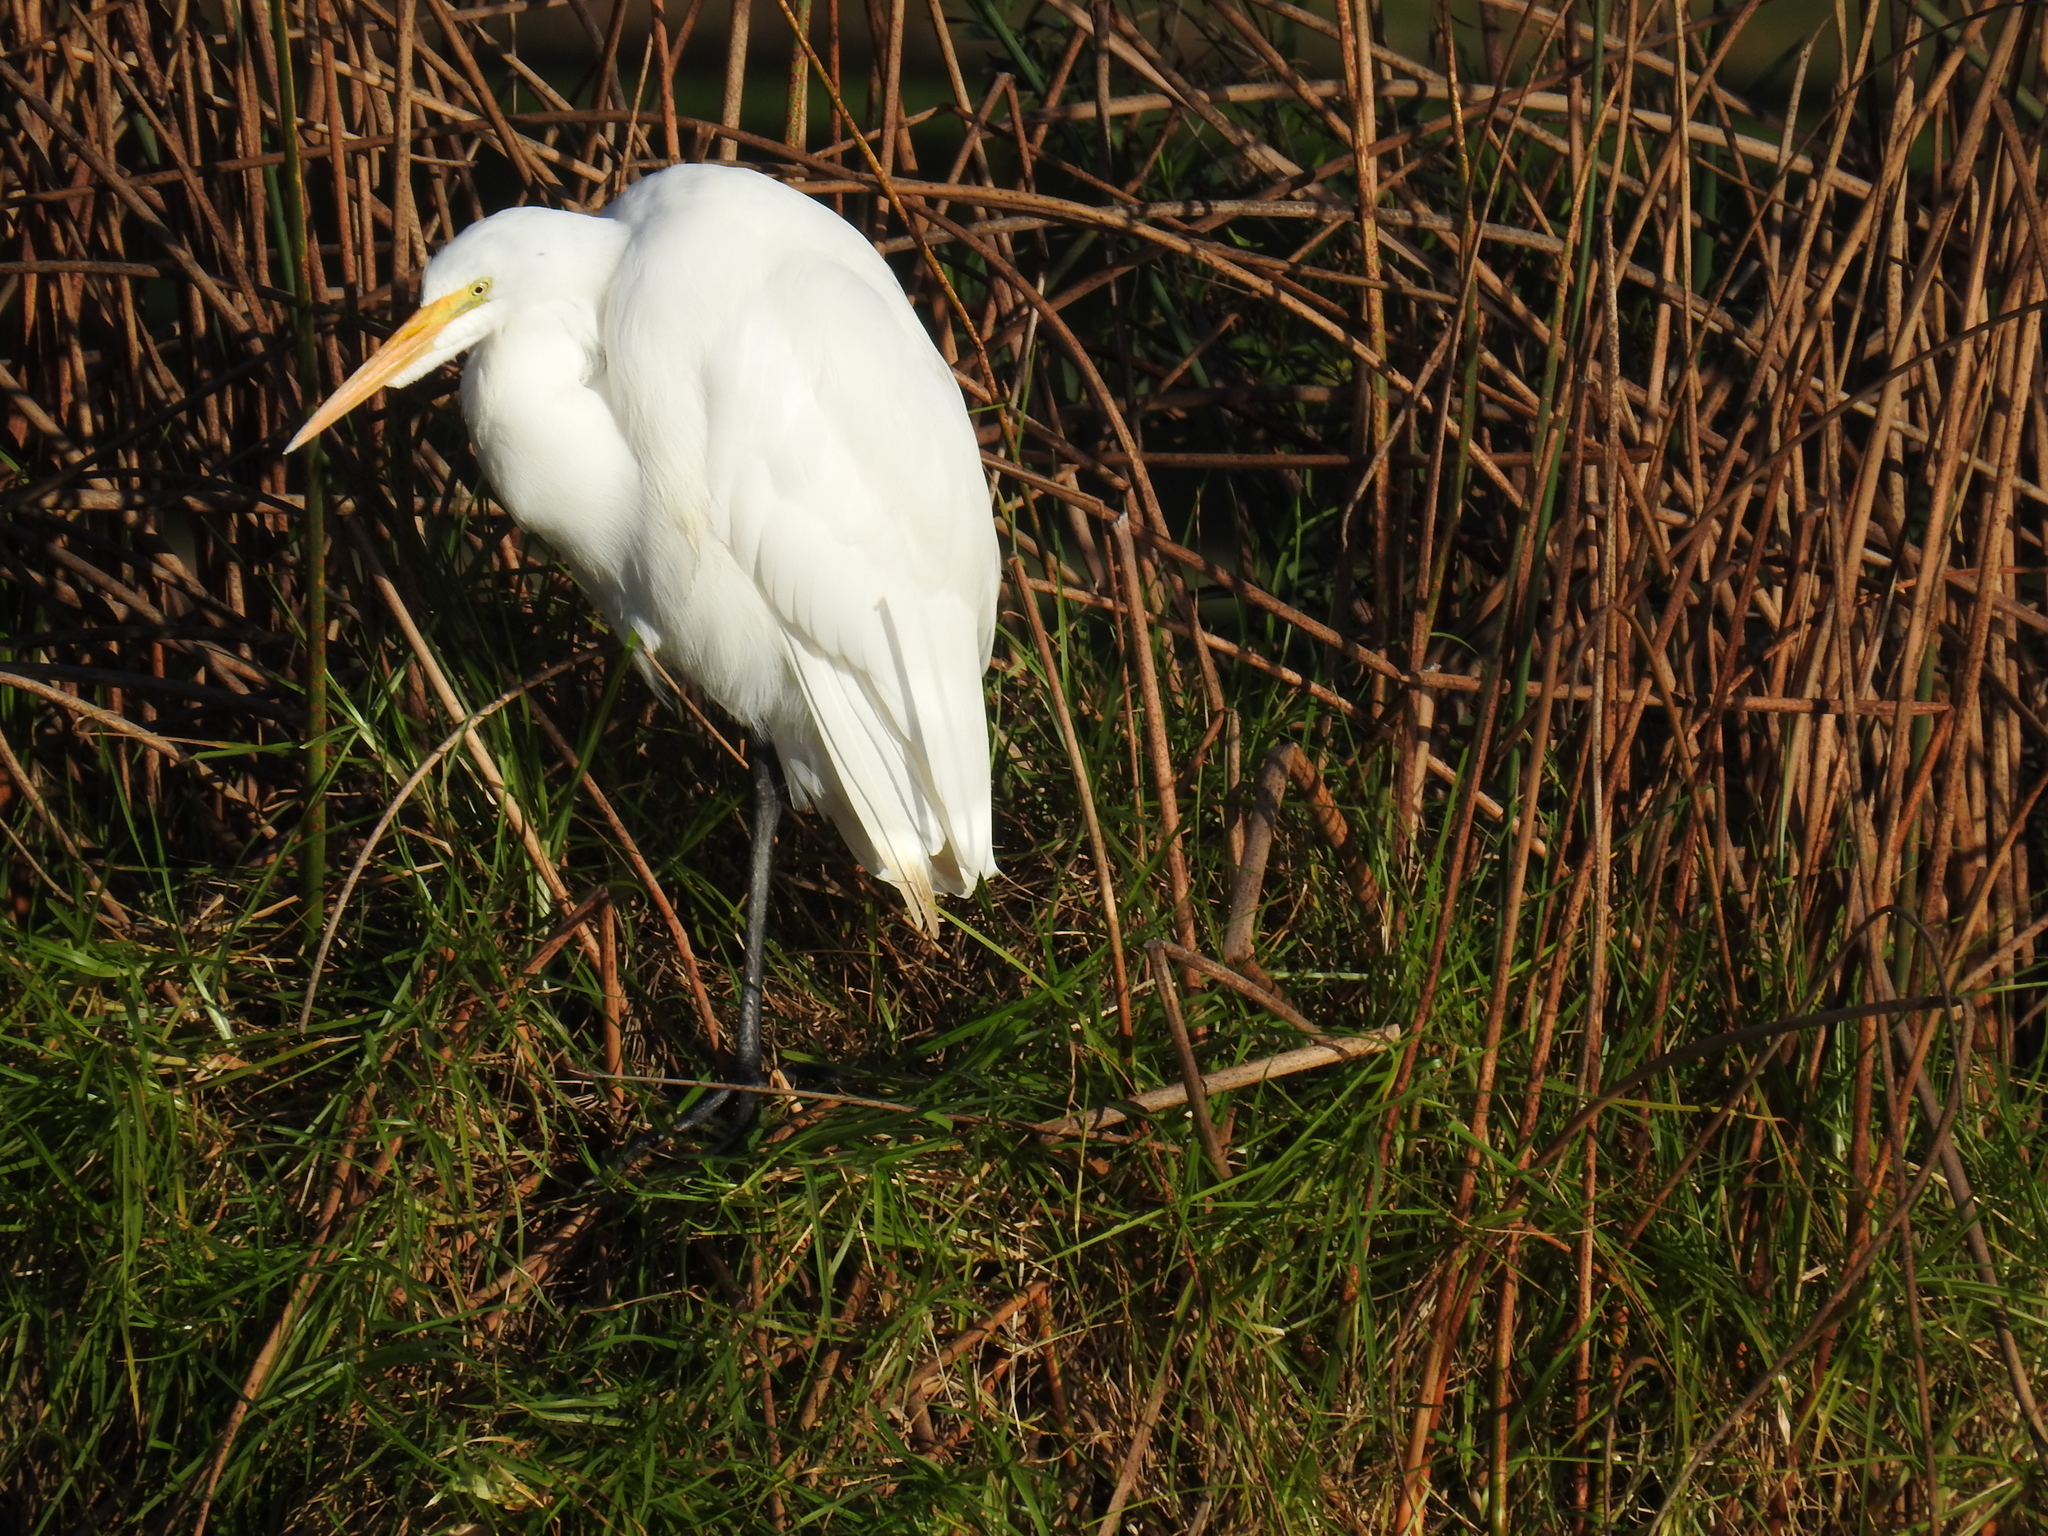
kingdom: Animalia
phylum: Chordata
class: Aves
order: Pelecaniformes
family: Ardeidae
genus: Ardea
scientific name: Ardea alba
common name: Great egret
